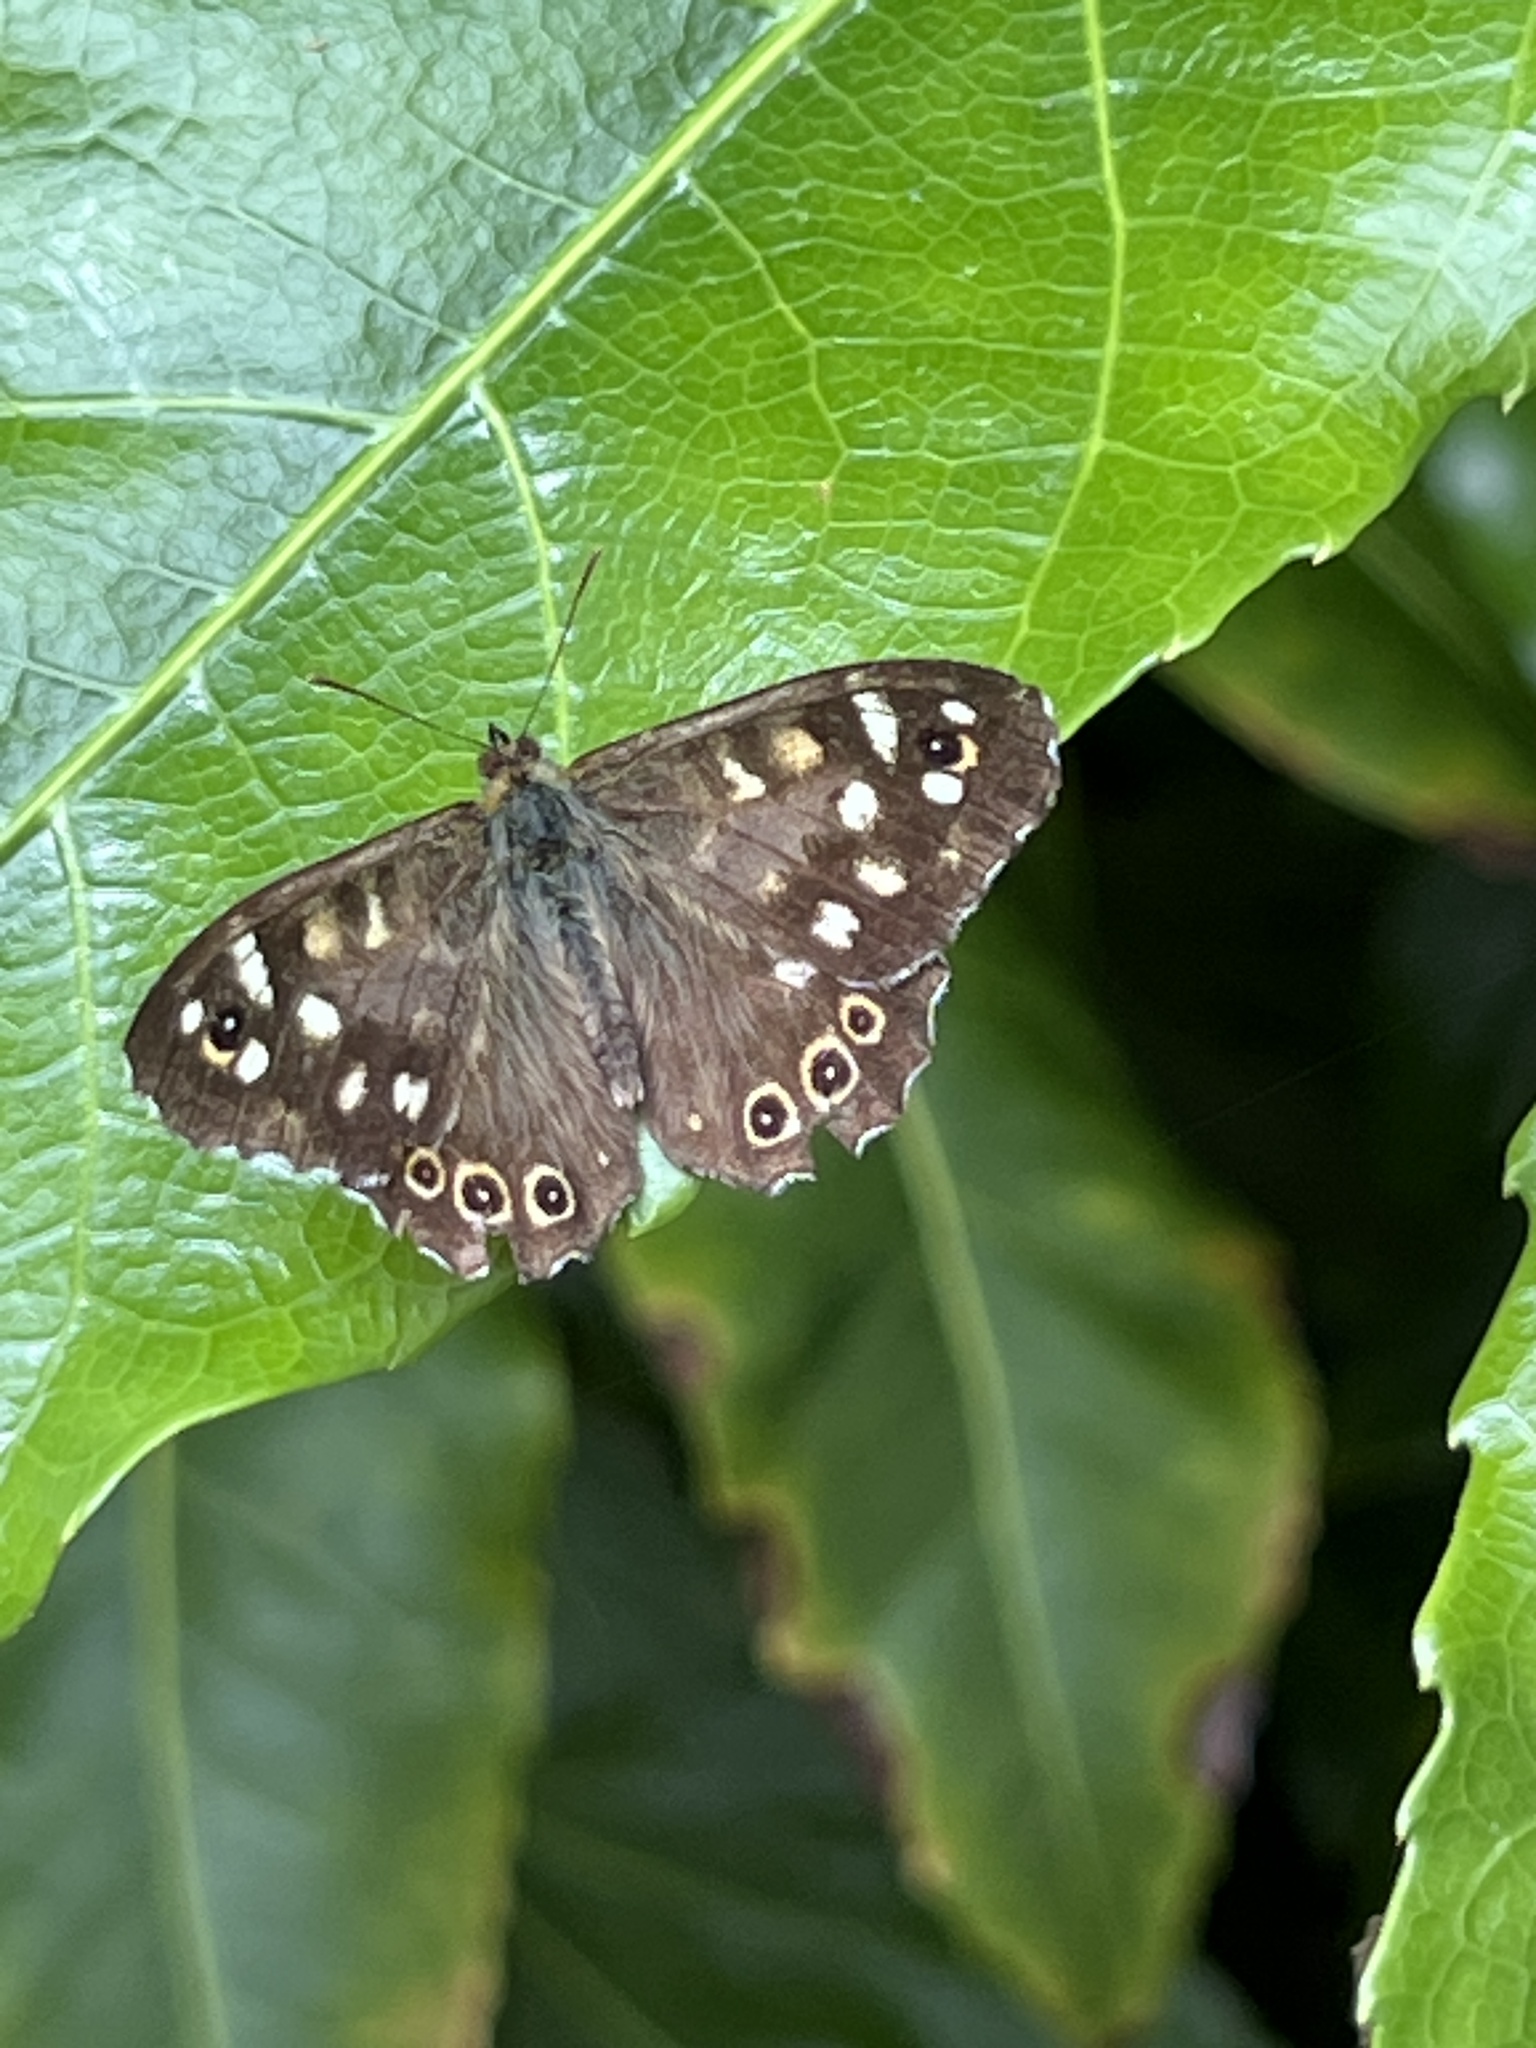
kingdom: Animalia
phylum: Arthropoda
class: Insecta
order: Lepidoptera
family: Nymphalidae
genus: Pararge
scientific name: Pararge aegeria
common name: Speckled wood
